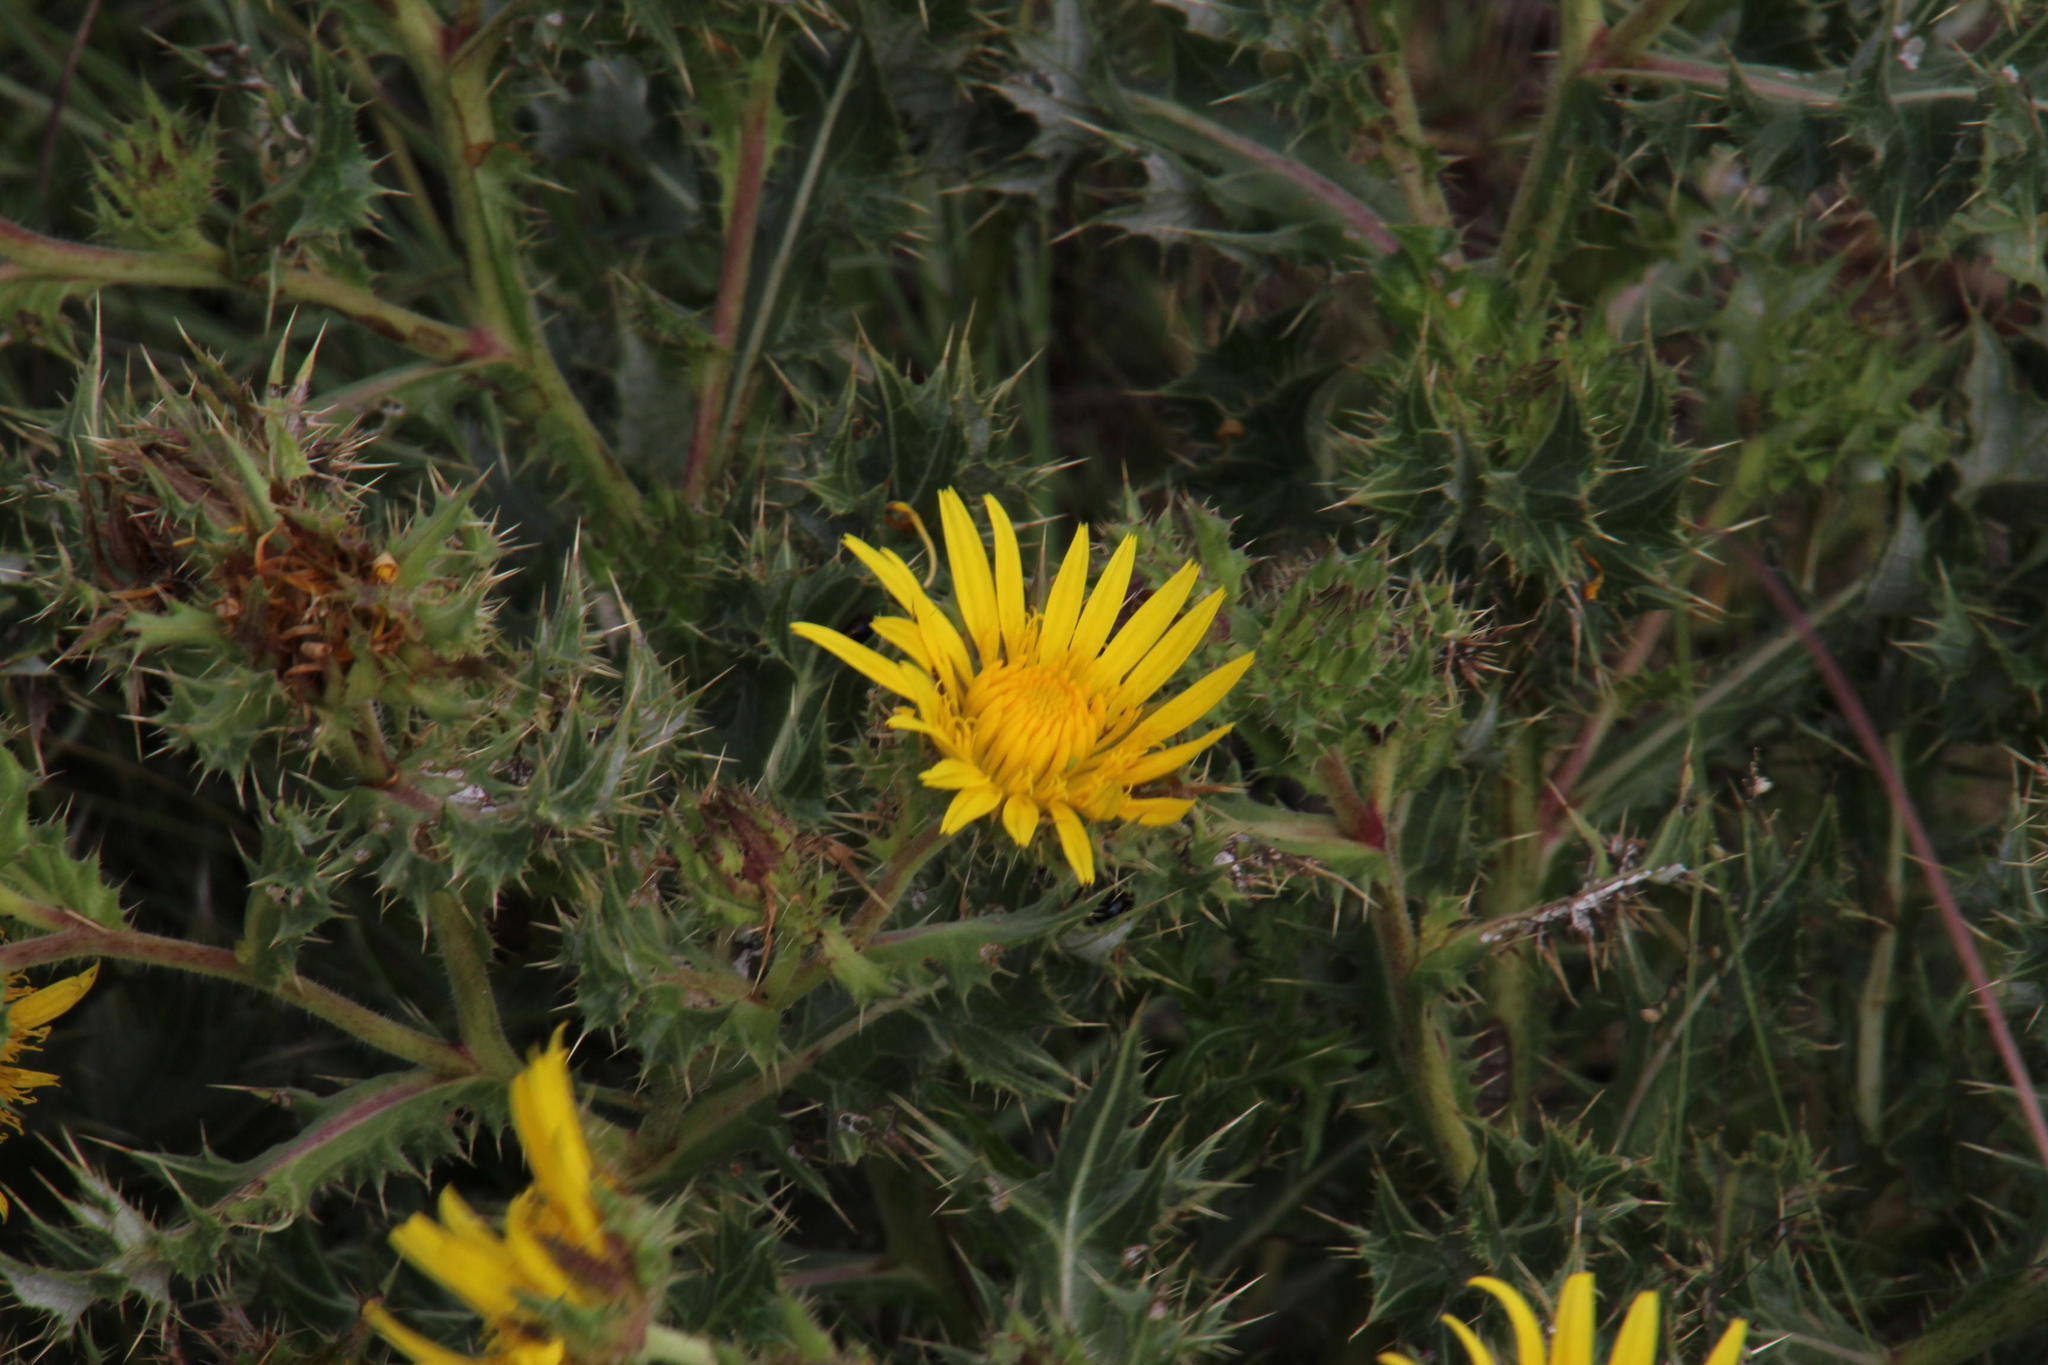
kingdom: Plantae
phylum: Tracheophyta
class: Magnoliopsida
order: Asterales
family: Asteraceae
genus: Berkheya
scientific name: Berkheya onopordifolia
